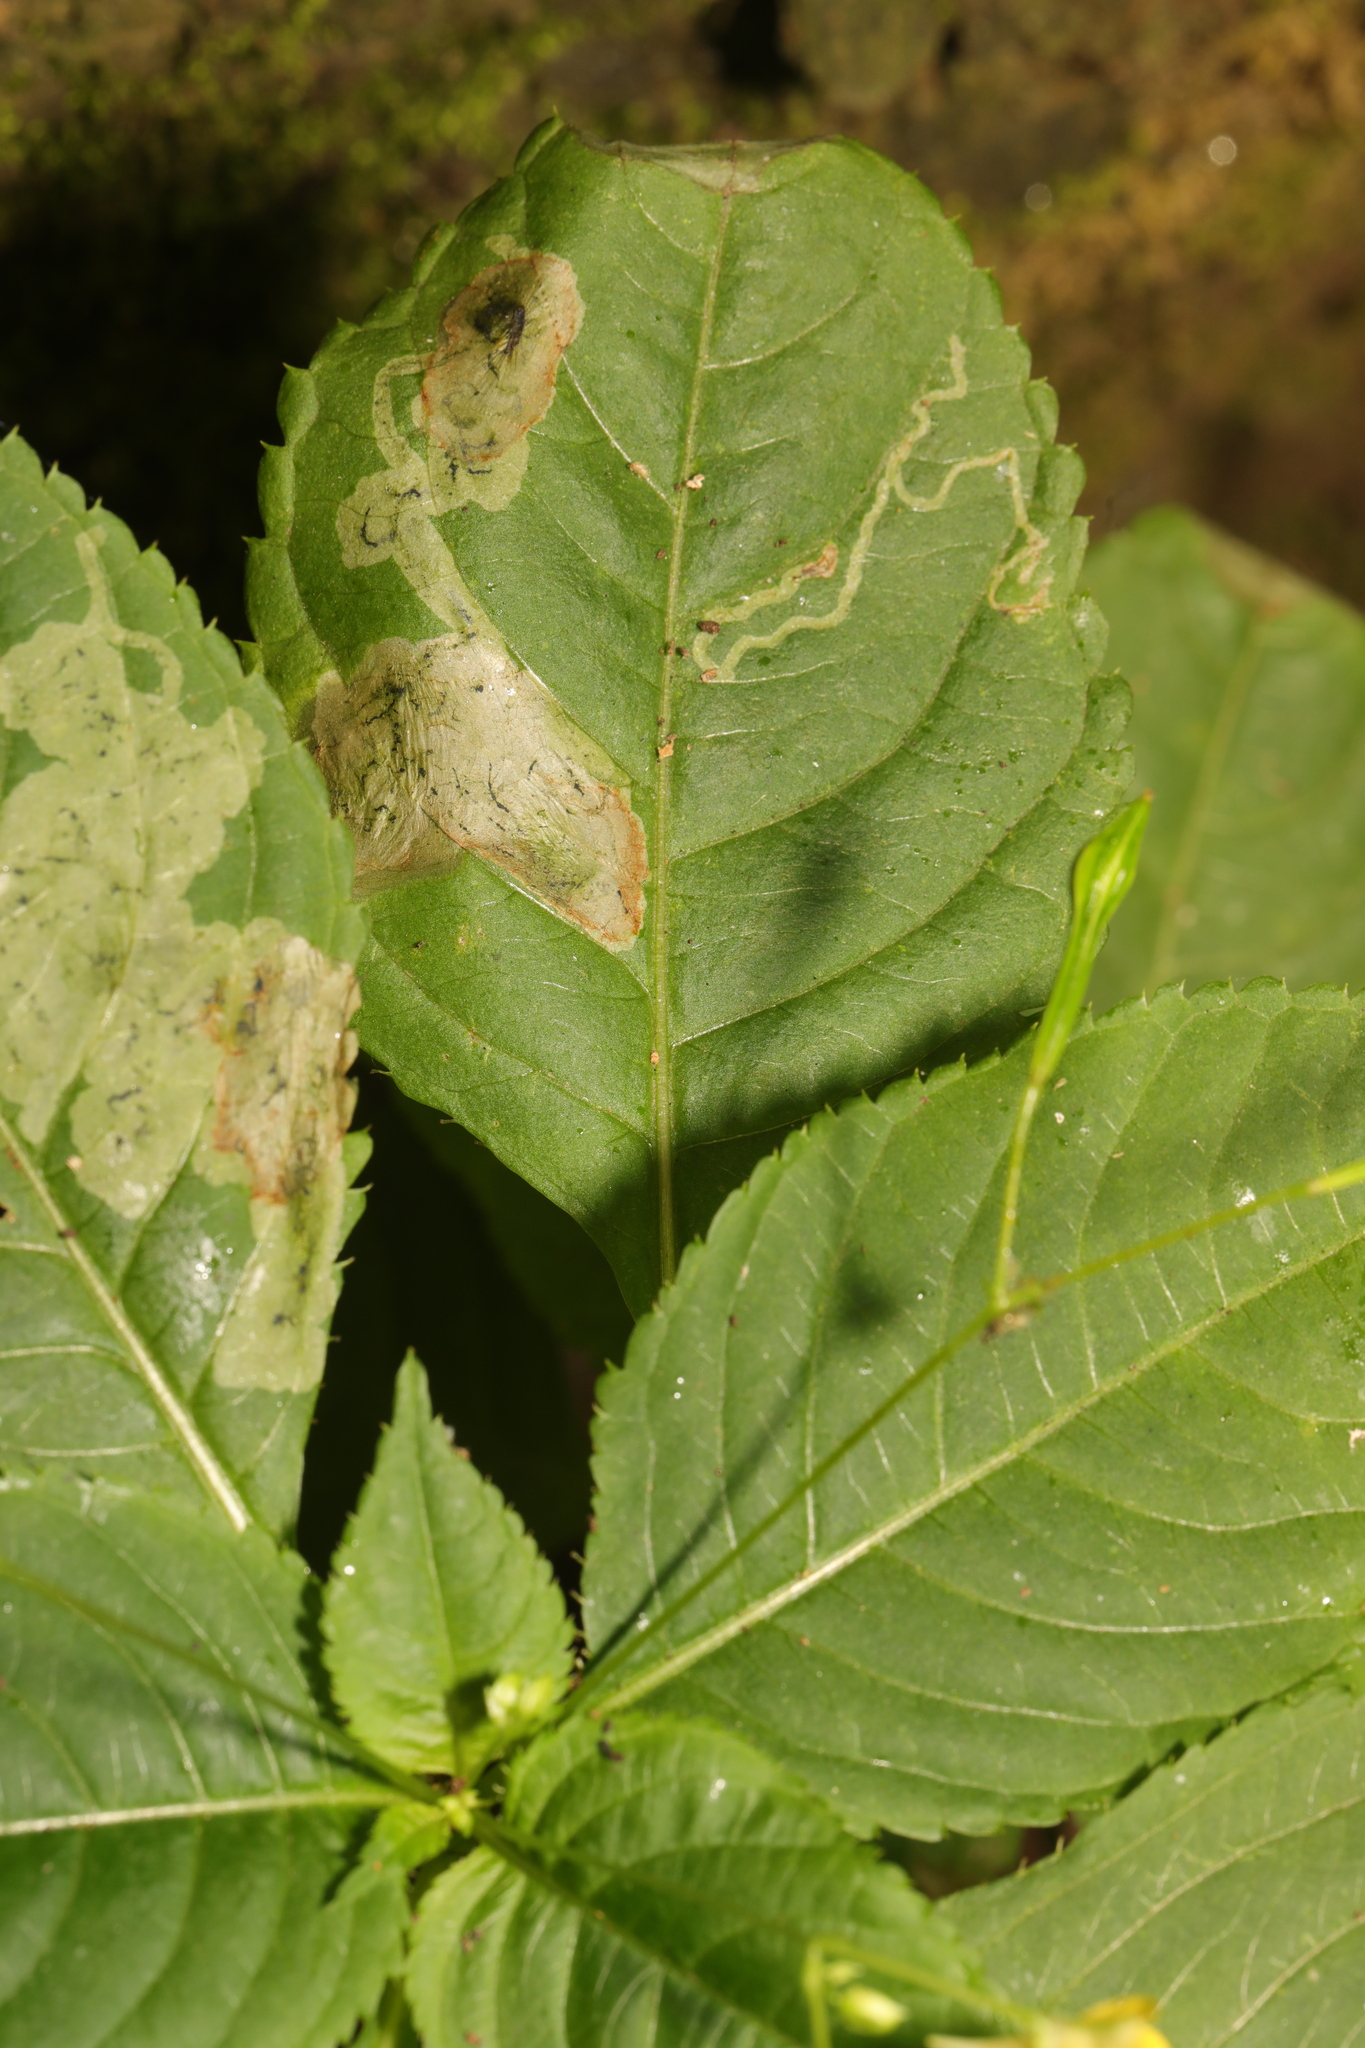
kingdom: Animalia
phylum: Arthropoda
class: Insecta
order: Diptera
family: Agromyzidae
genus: Phytoliriomyza
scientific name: Phytoliriomyza melampyga
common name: Jewelweed leaf-miner fly
